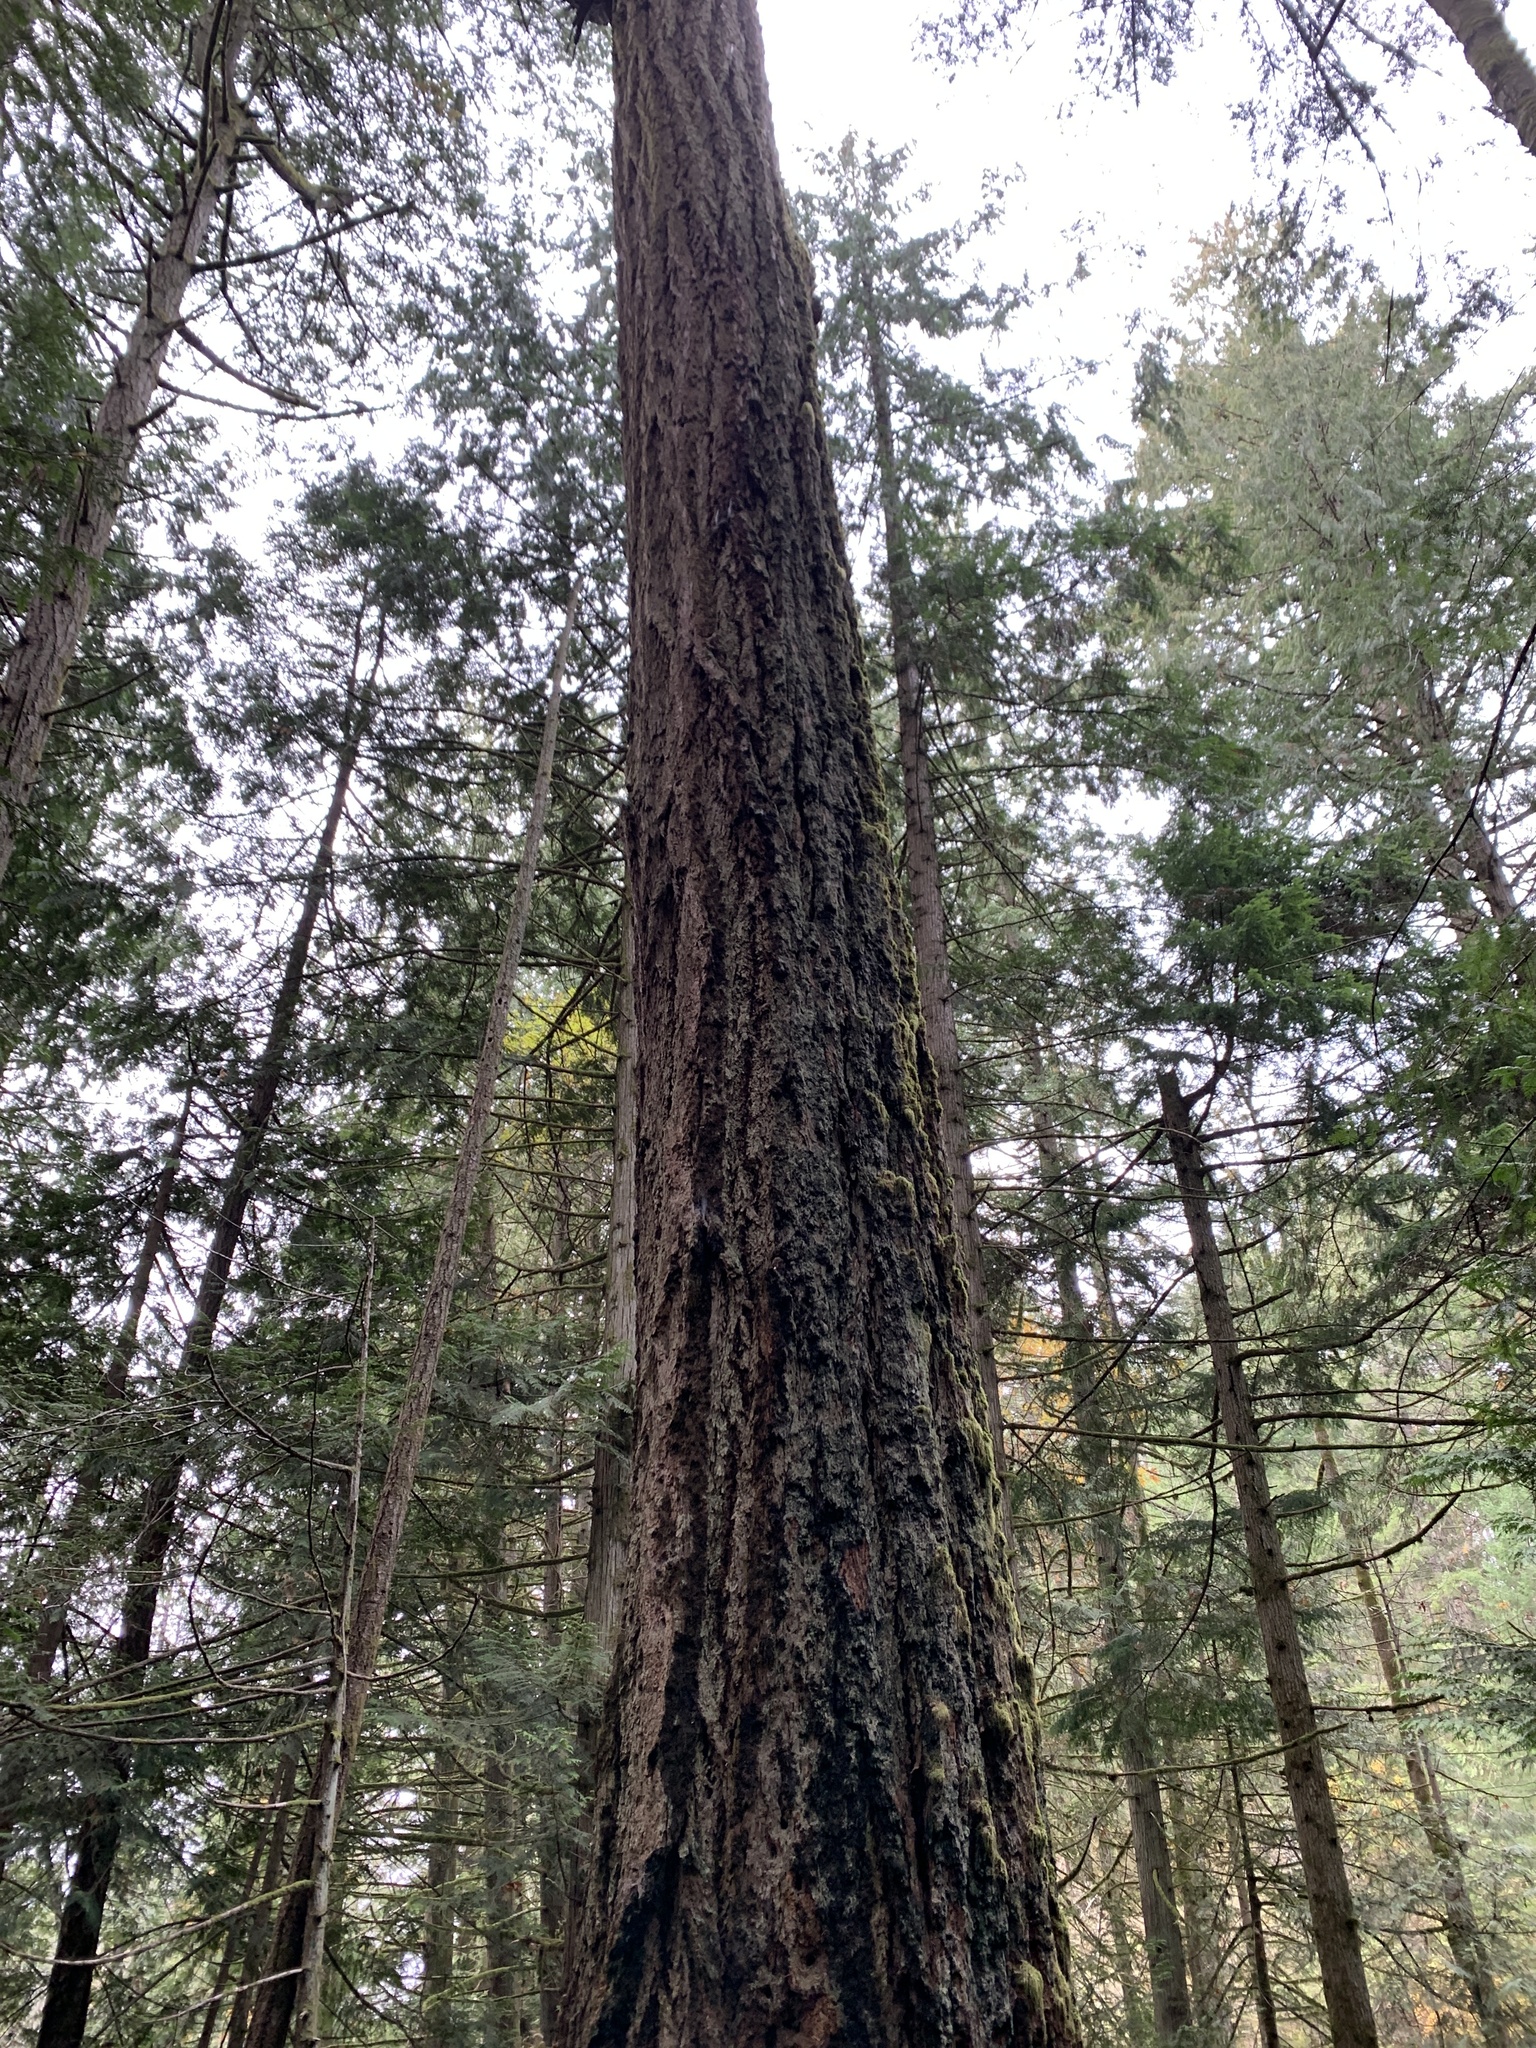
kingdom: Plantae
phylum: Tracheophyta
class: Pinopsida
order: Pinales
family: Pinaceae
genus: Pseudotsuga
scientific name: Pseudotsuga menziesii
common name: Douglas fir
